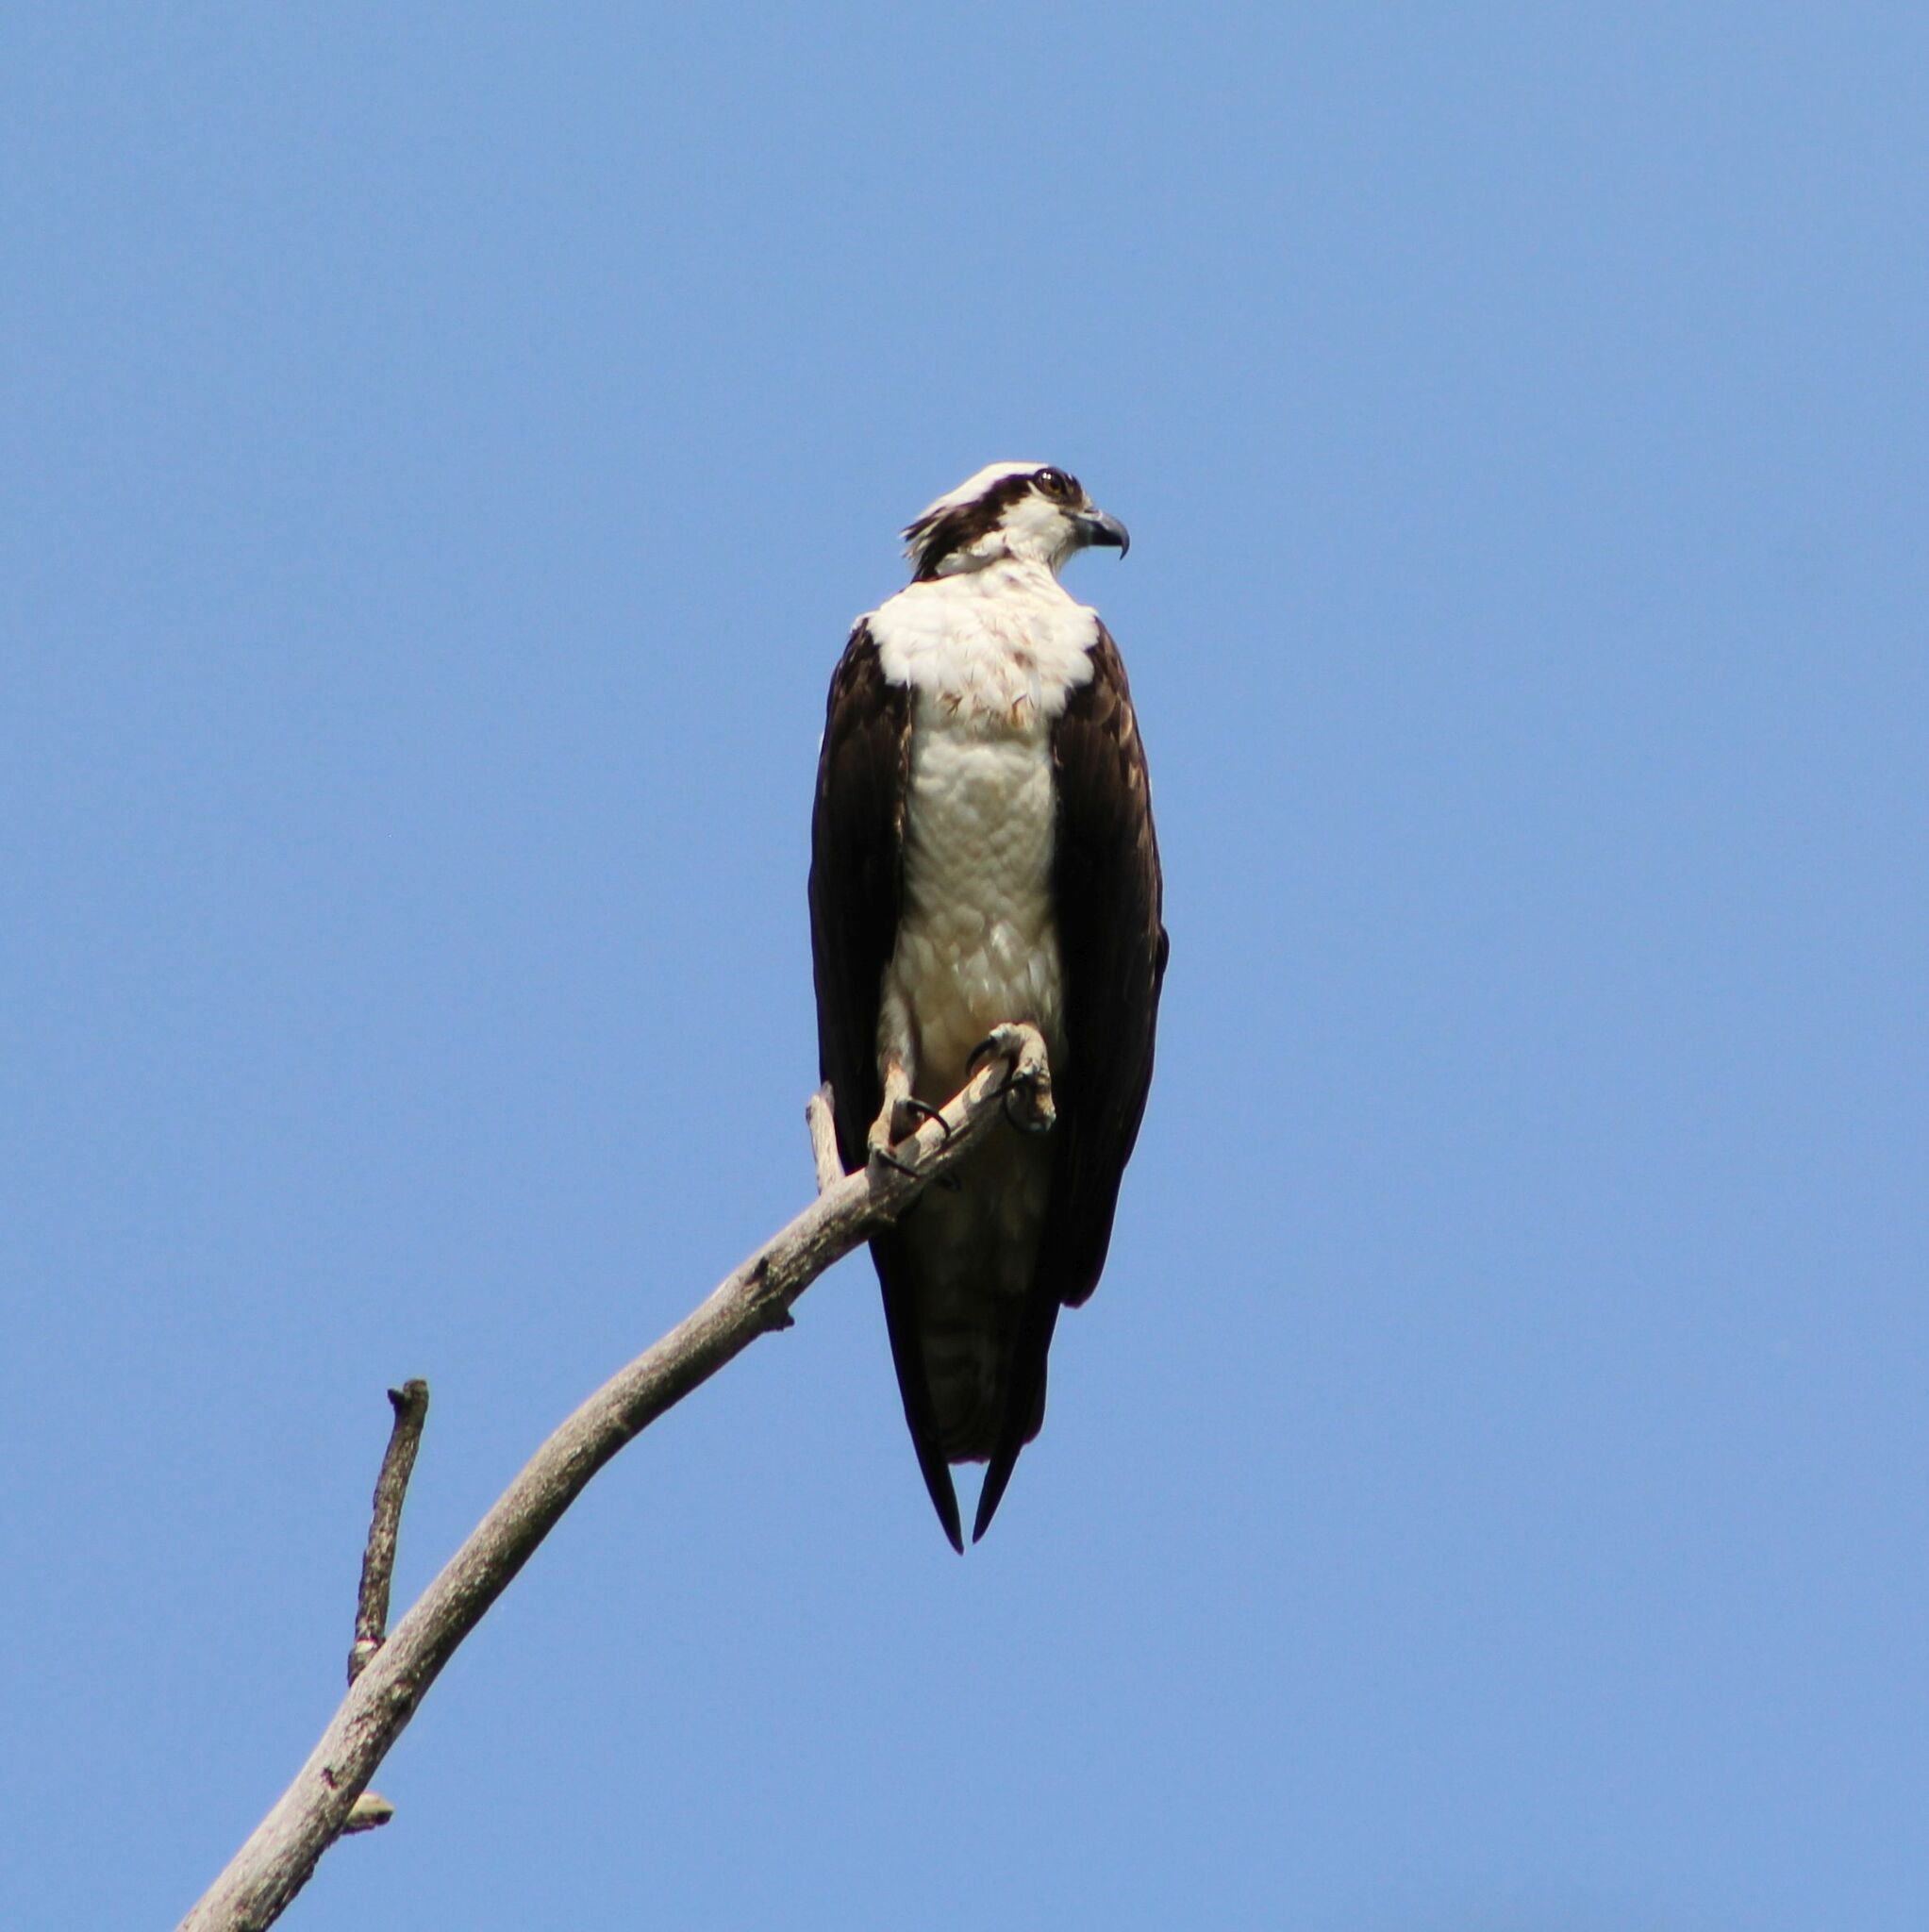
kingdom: Animalia
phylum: Chordata
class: Aves
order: Accipitriformes
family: Pandionidae
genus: Pandion
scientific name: Pandion haliaetus
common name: Osprey
